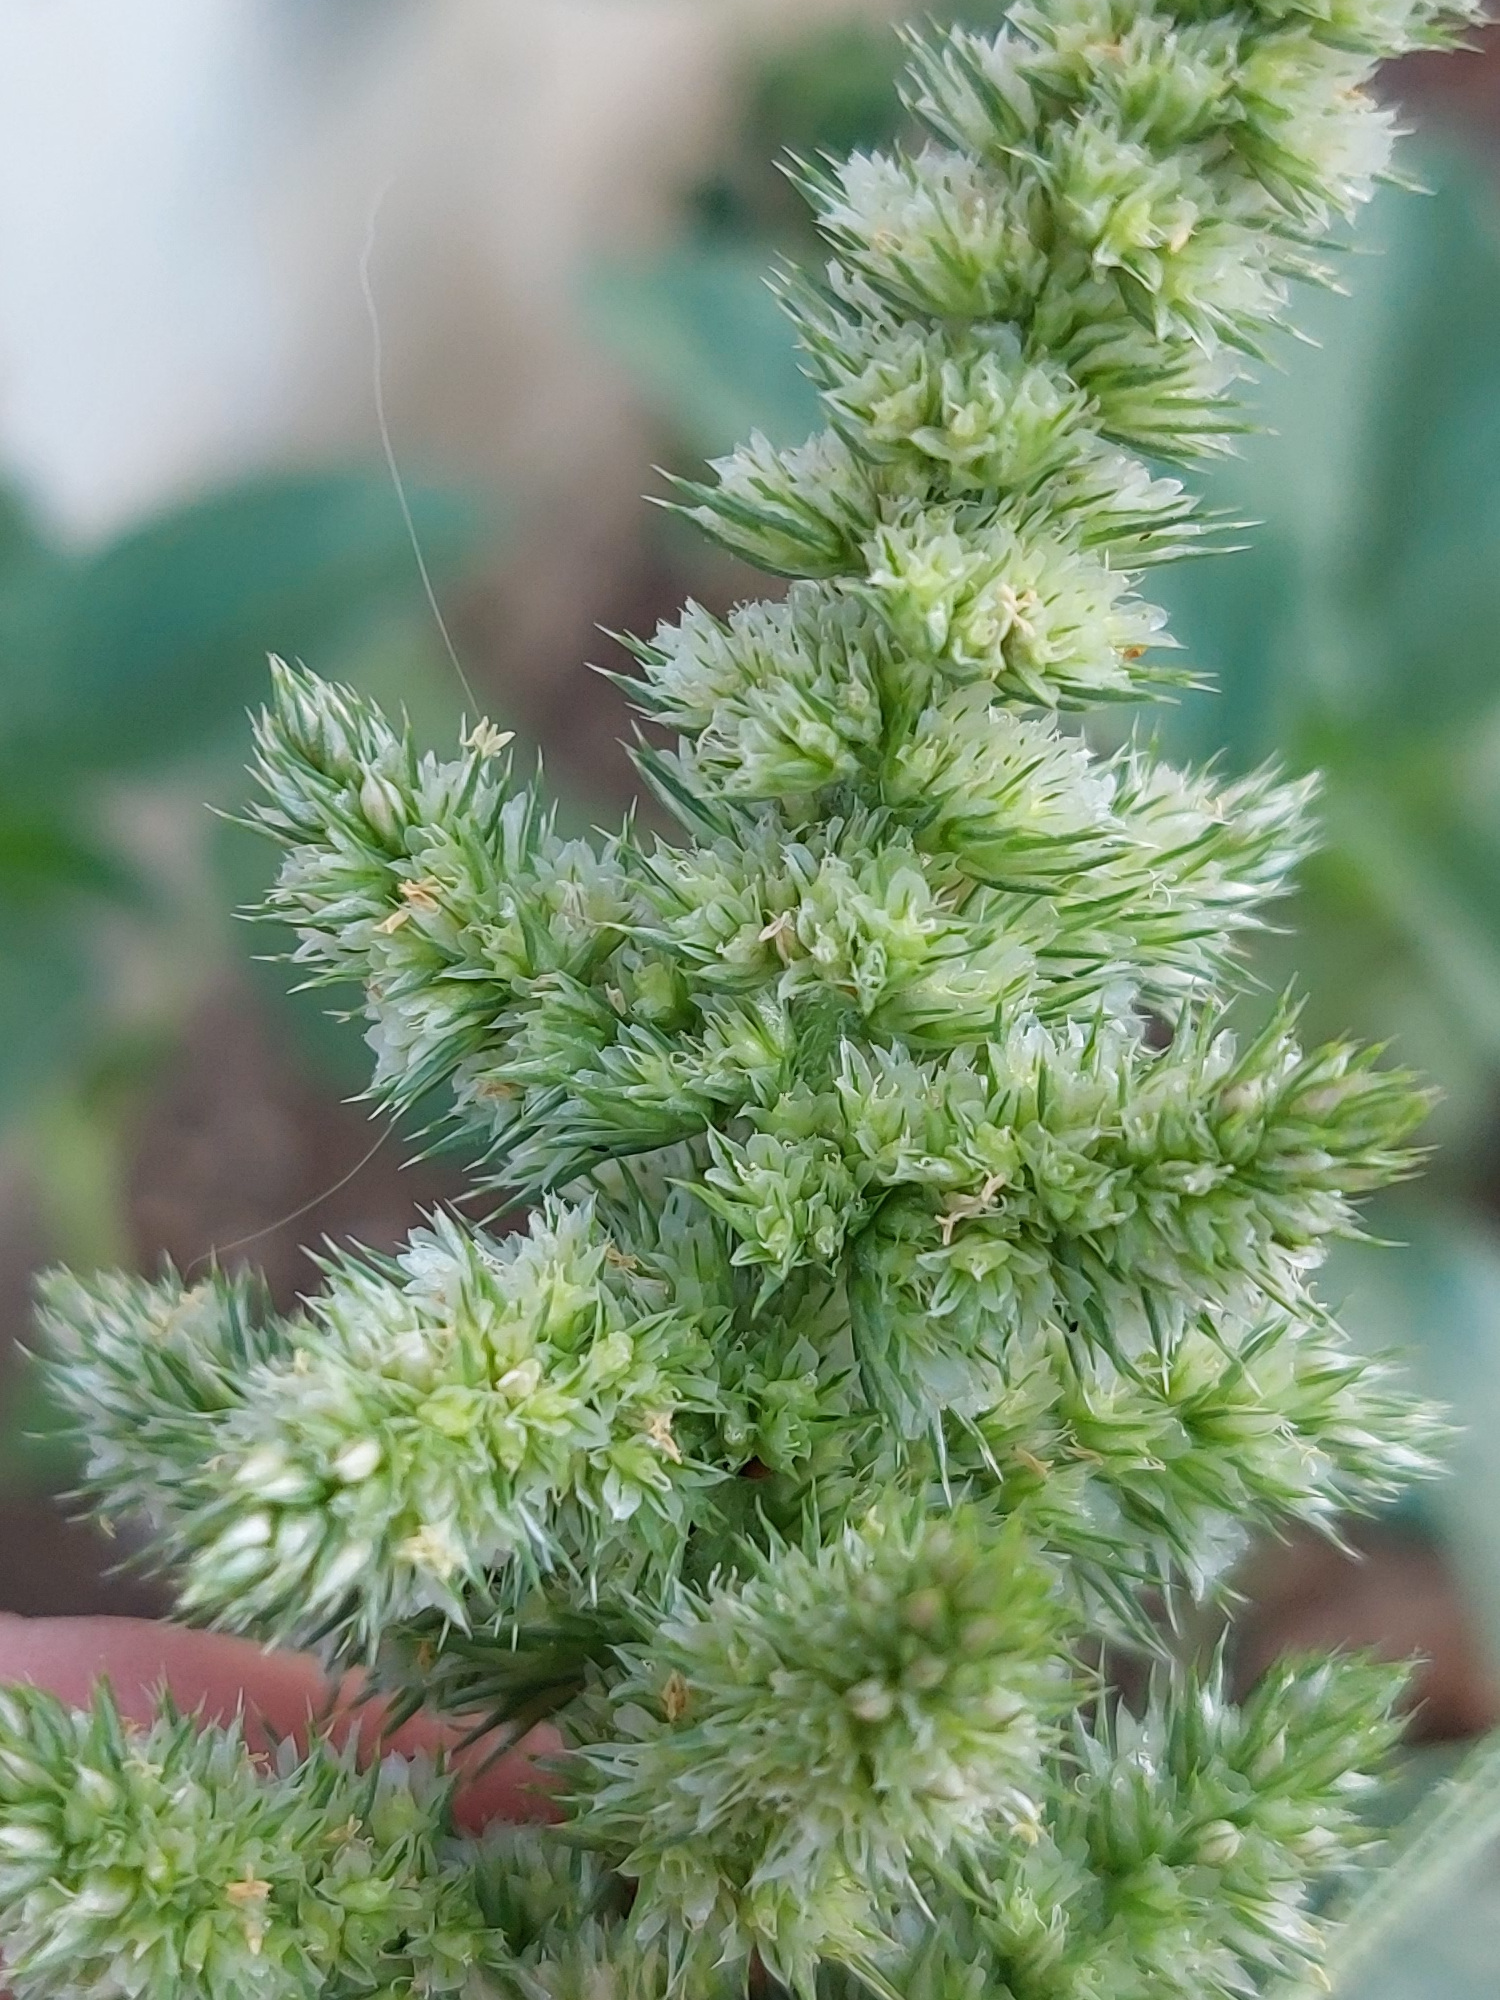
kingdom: Plantae
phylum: Tracheophyta
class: Magnoliopsida
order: Caryophyllales
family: Amaranthaceae
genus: Amaranthus
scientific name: Amaranthus retroflexus
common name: Redroot amaranth
